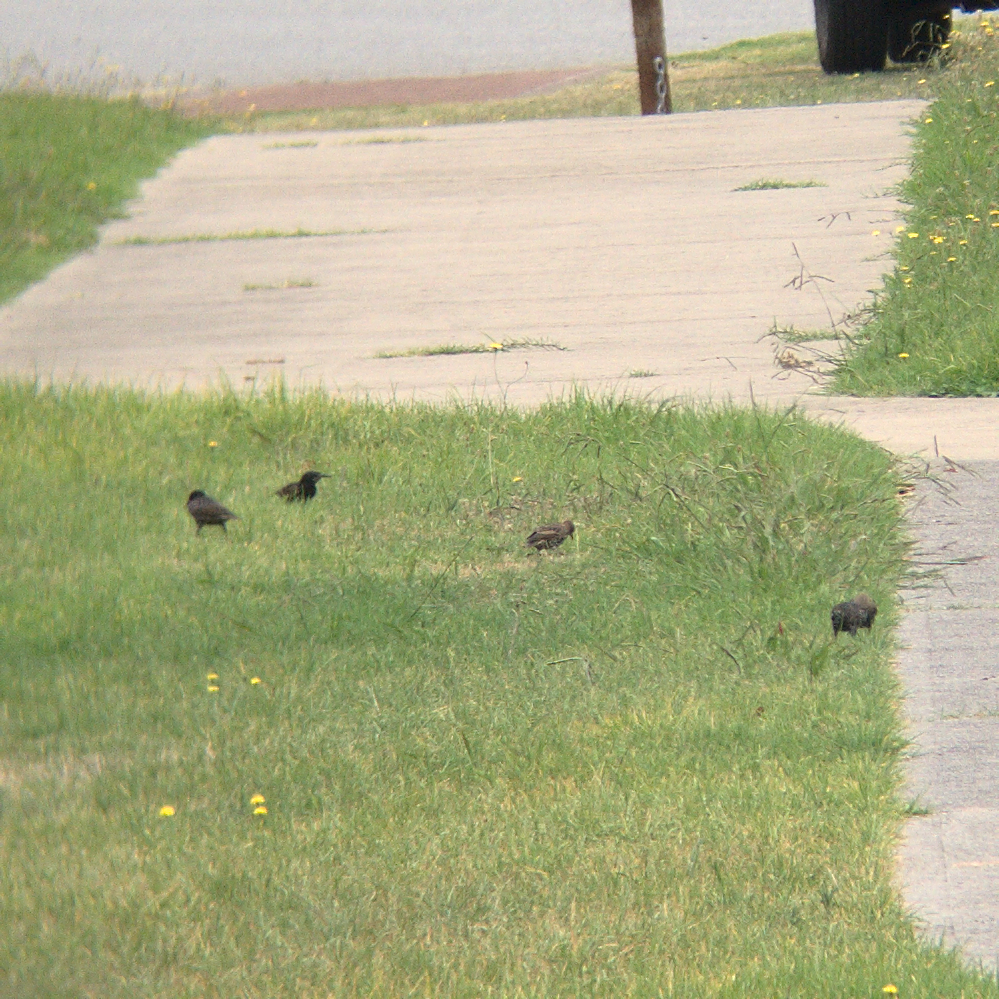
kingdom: Animalia
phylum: Chordata
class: Aves
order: Passeriformes
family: Sturnidae
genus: Sturnus
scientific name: Sturnus vulgaris
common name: Common starling
